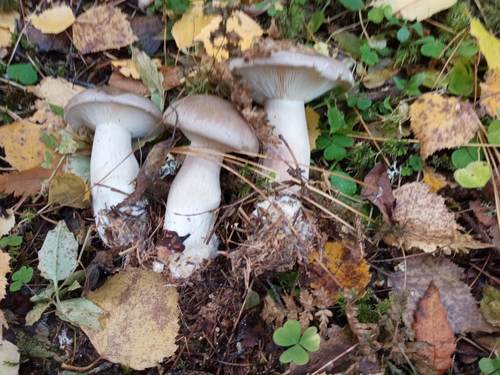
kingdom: Fungi
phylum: Basidiomycota
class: Agaricomycetes
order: Agaricales
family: Tricholomataceae
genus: Clitocybe
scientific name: Clitocybe nebularis
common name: Clouded agaric
